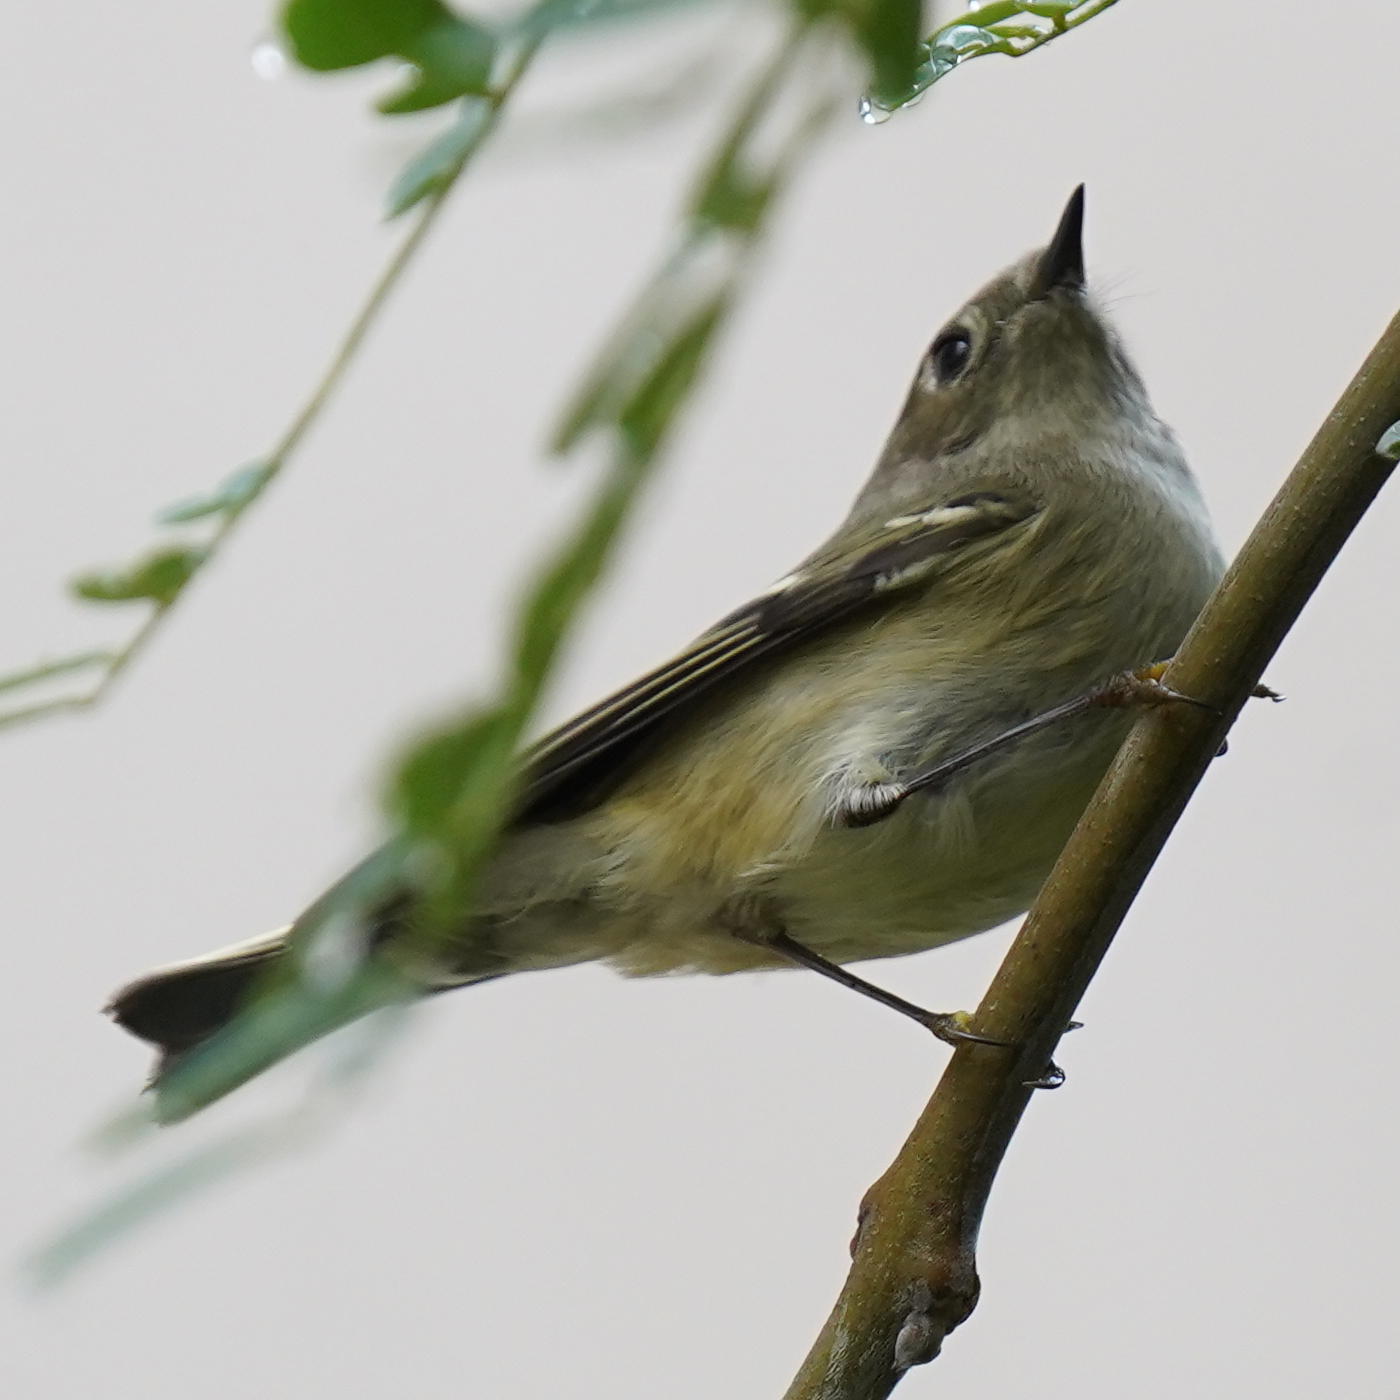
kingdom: Animalia
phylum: Chordata
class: Aves
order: Passeriformes
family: Regulidae
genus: Regulus
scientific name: Regulus calendula
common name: Ruby-crowned kinglet
